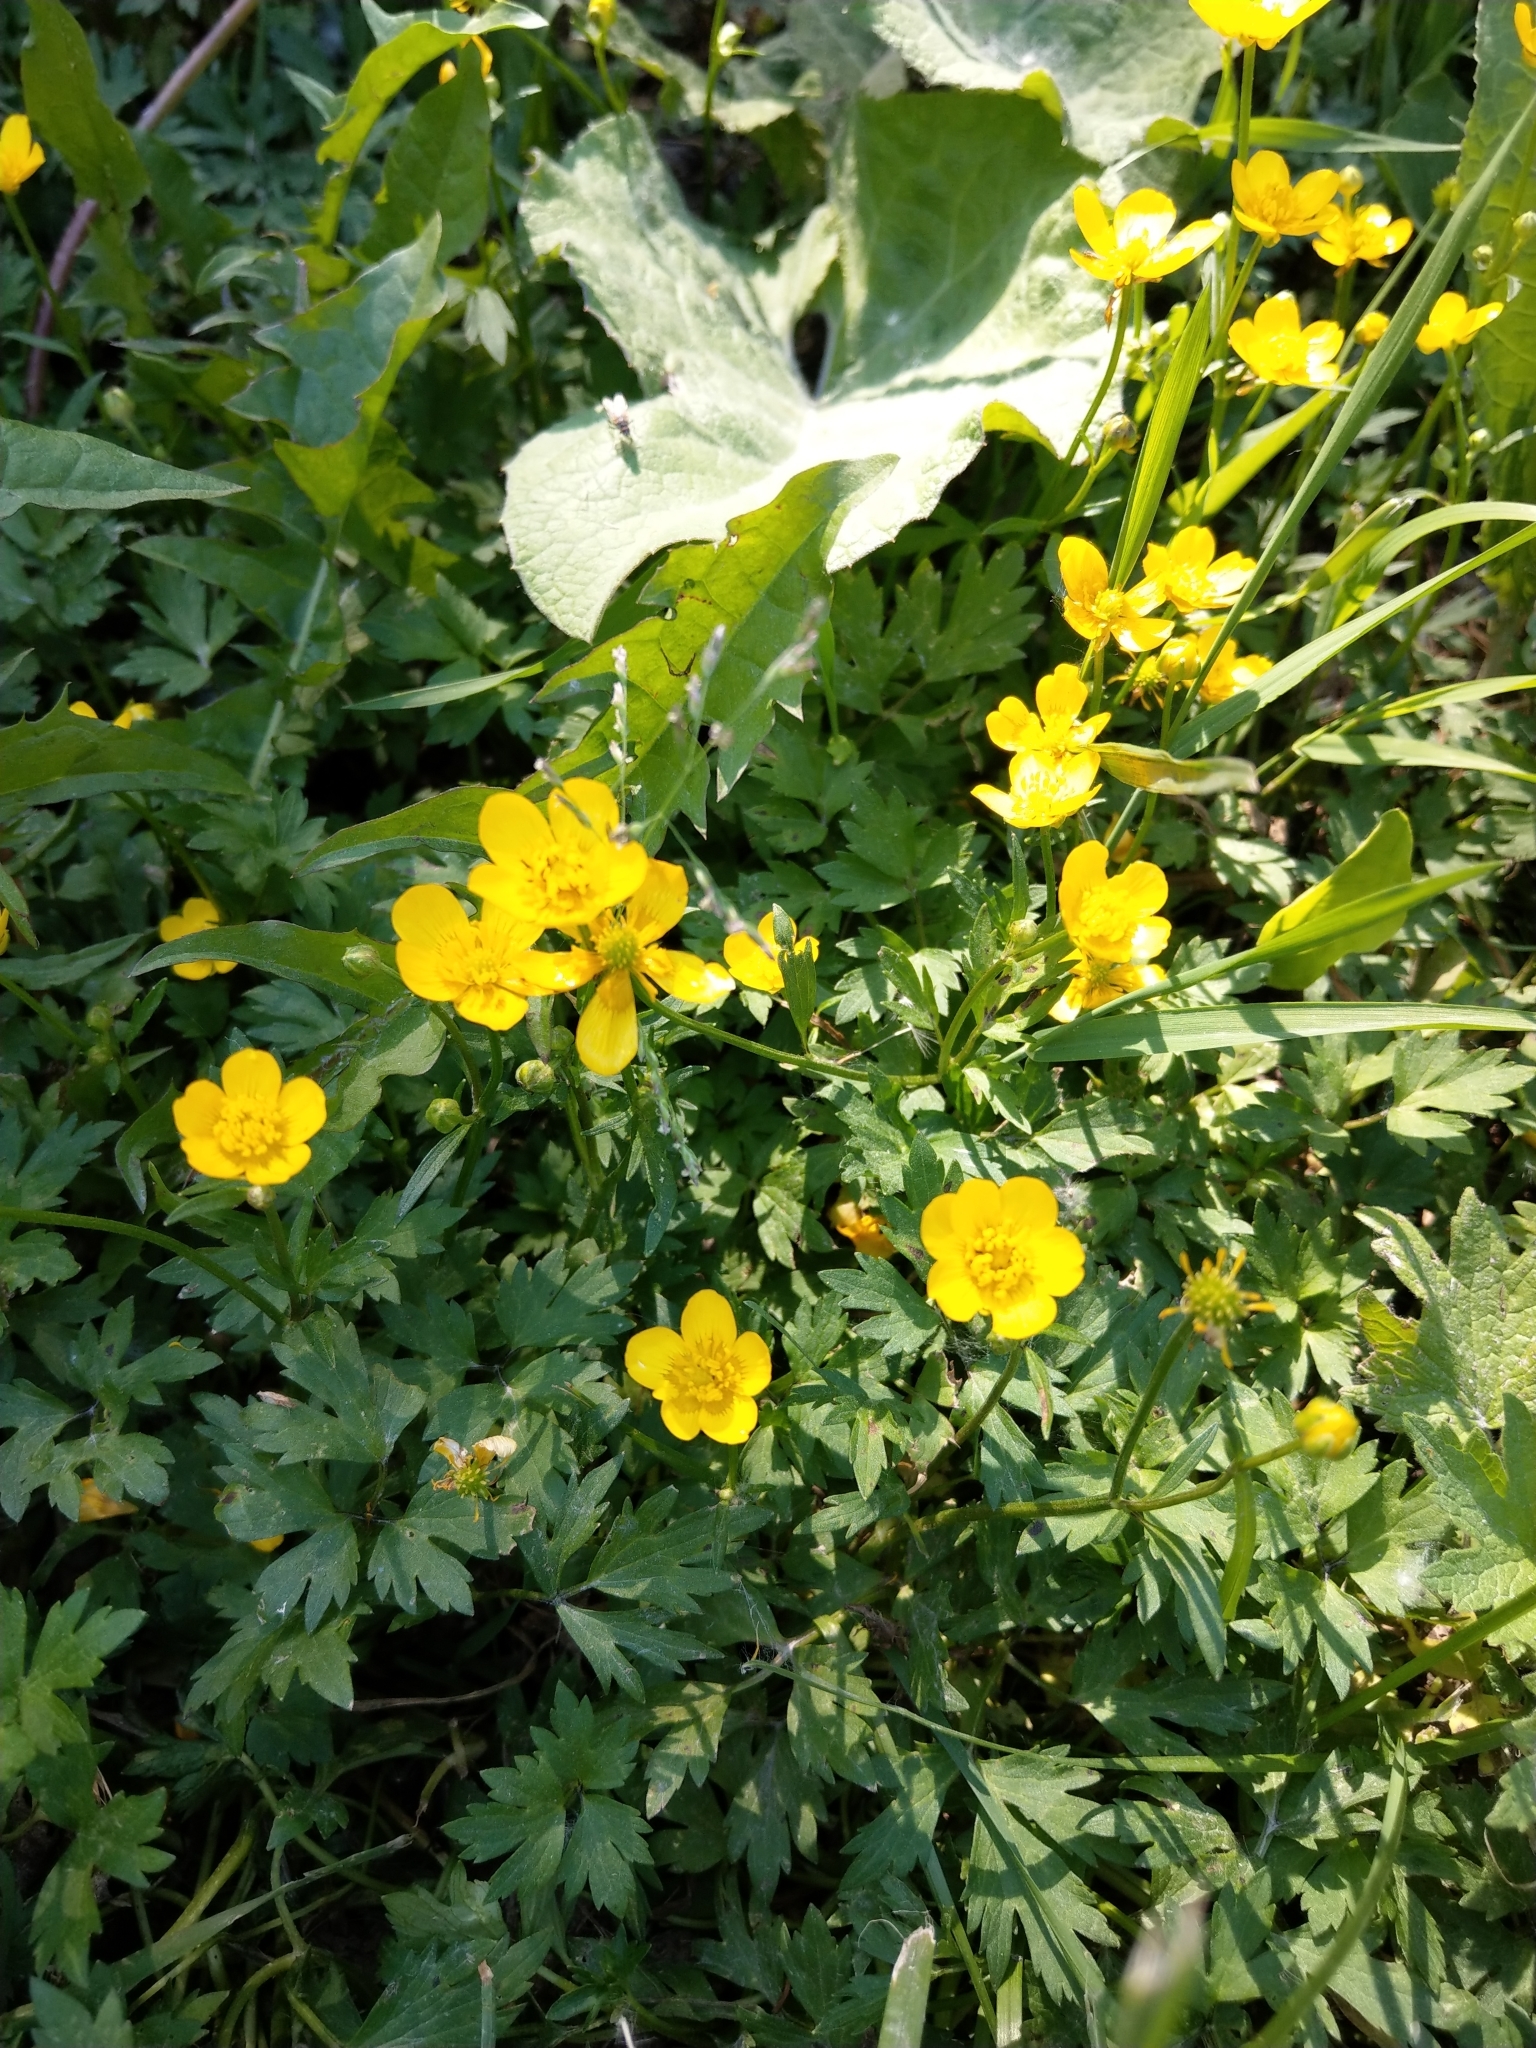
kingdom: Plantae
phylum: Tracheophyta
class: Magnoliopsida
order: Ranunculales
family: Ranunculaceae
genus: Ranunculus
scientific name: Ranunculus repens
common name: Creeping buttercup
